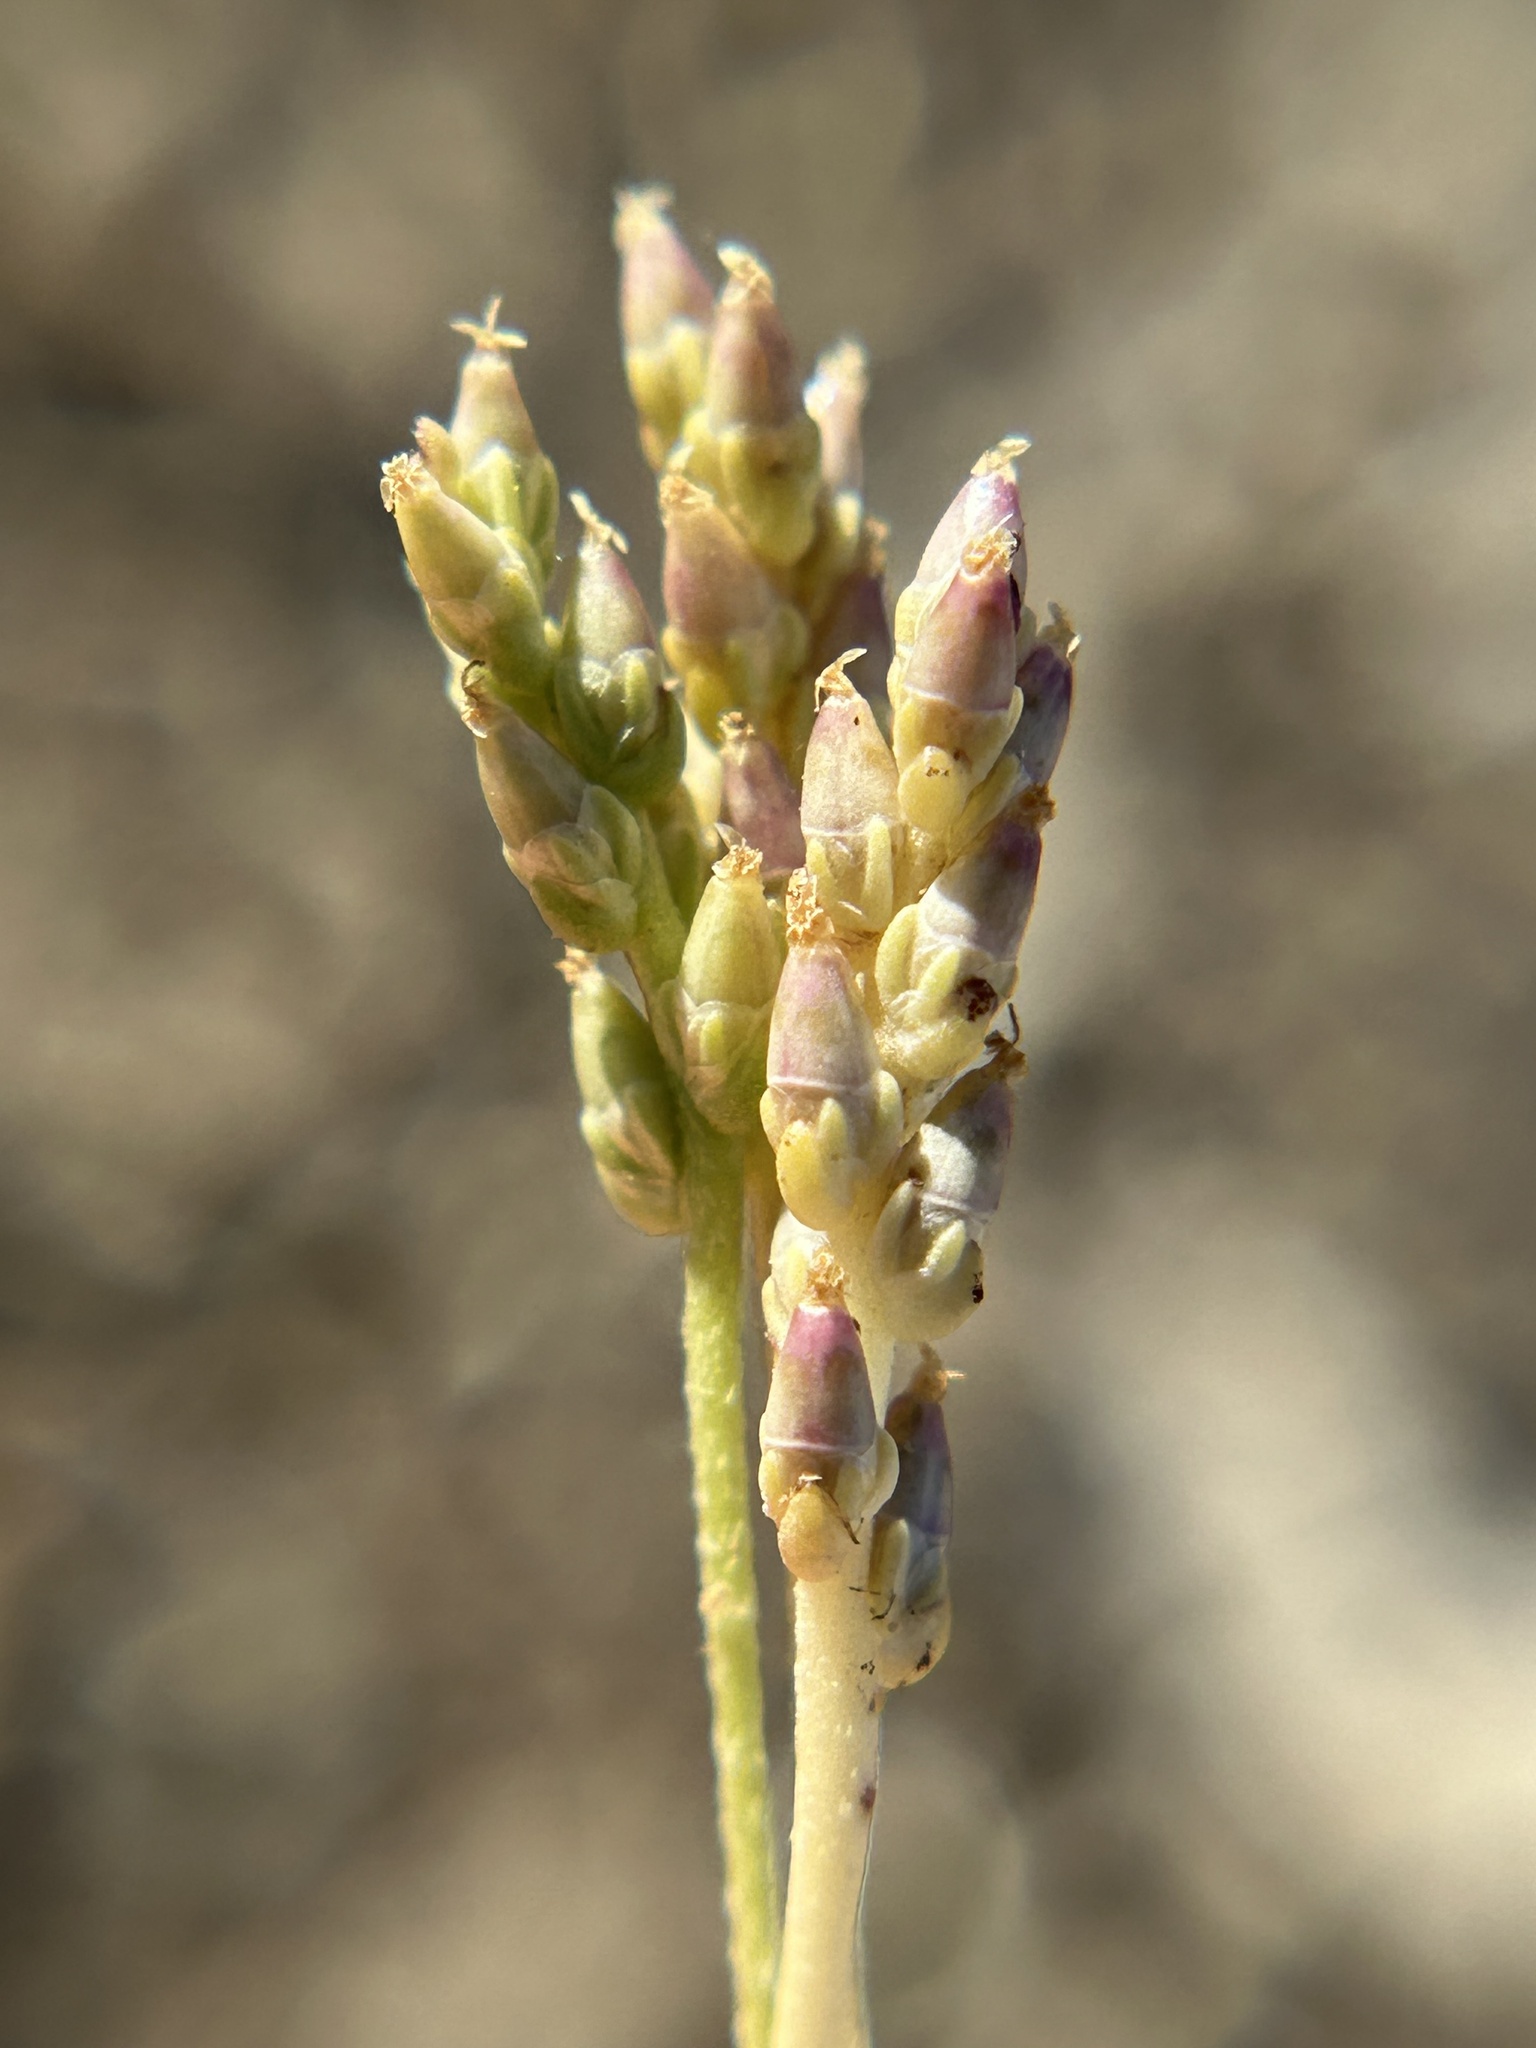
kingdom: Plantae
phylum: Tracheophyta
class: Magnoliopsida
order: Lamiales
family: Plantaginaceae
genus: Plantago
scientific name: Plantago elongata
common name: Linear-leaved plantain
